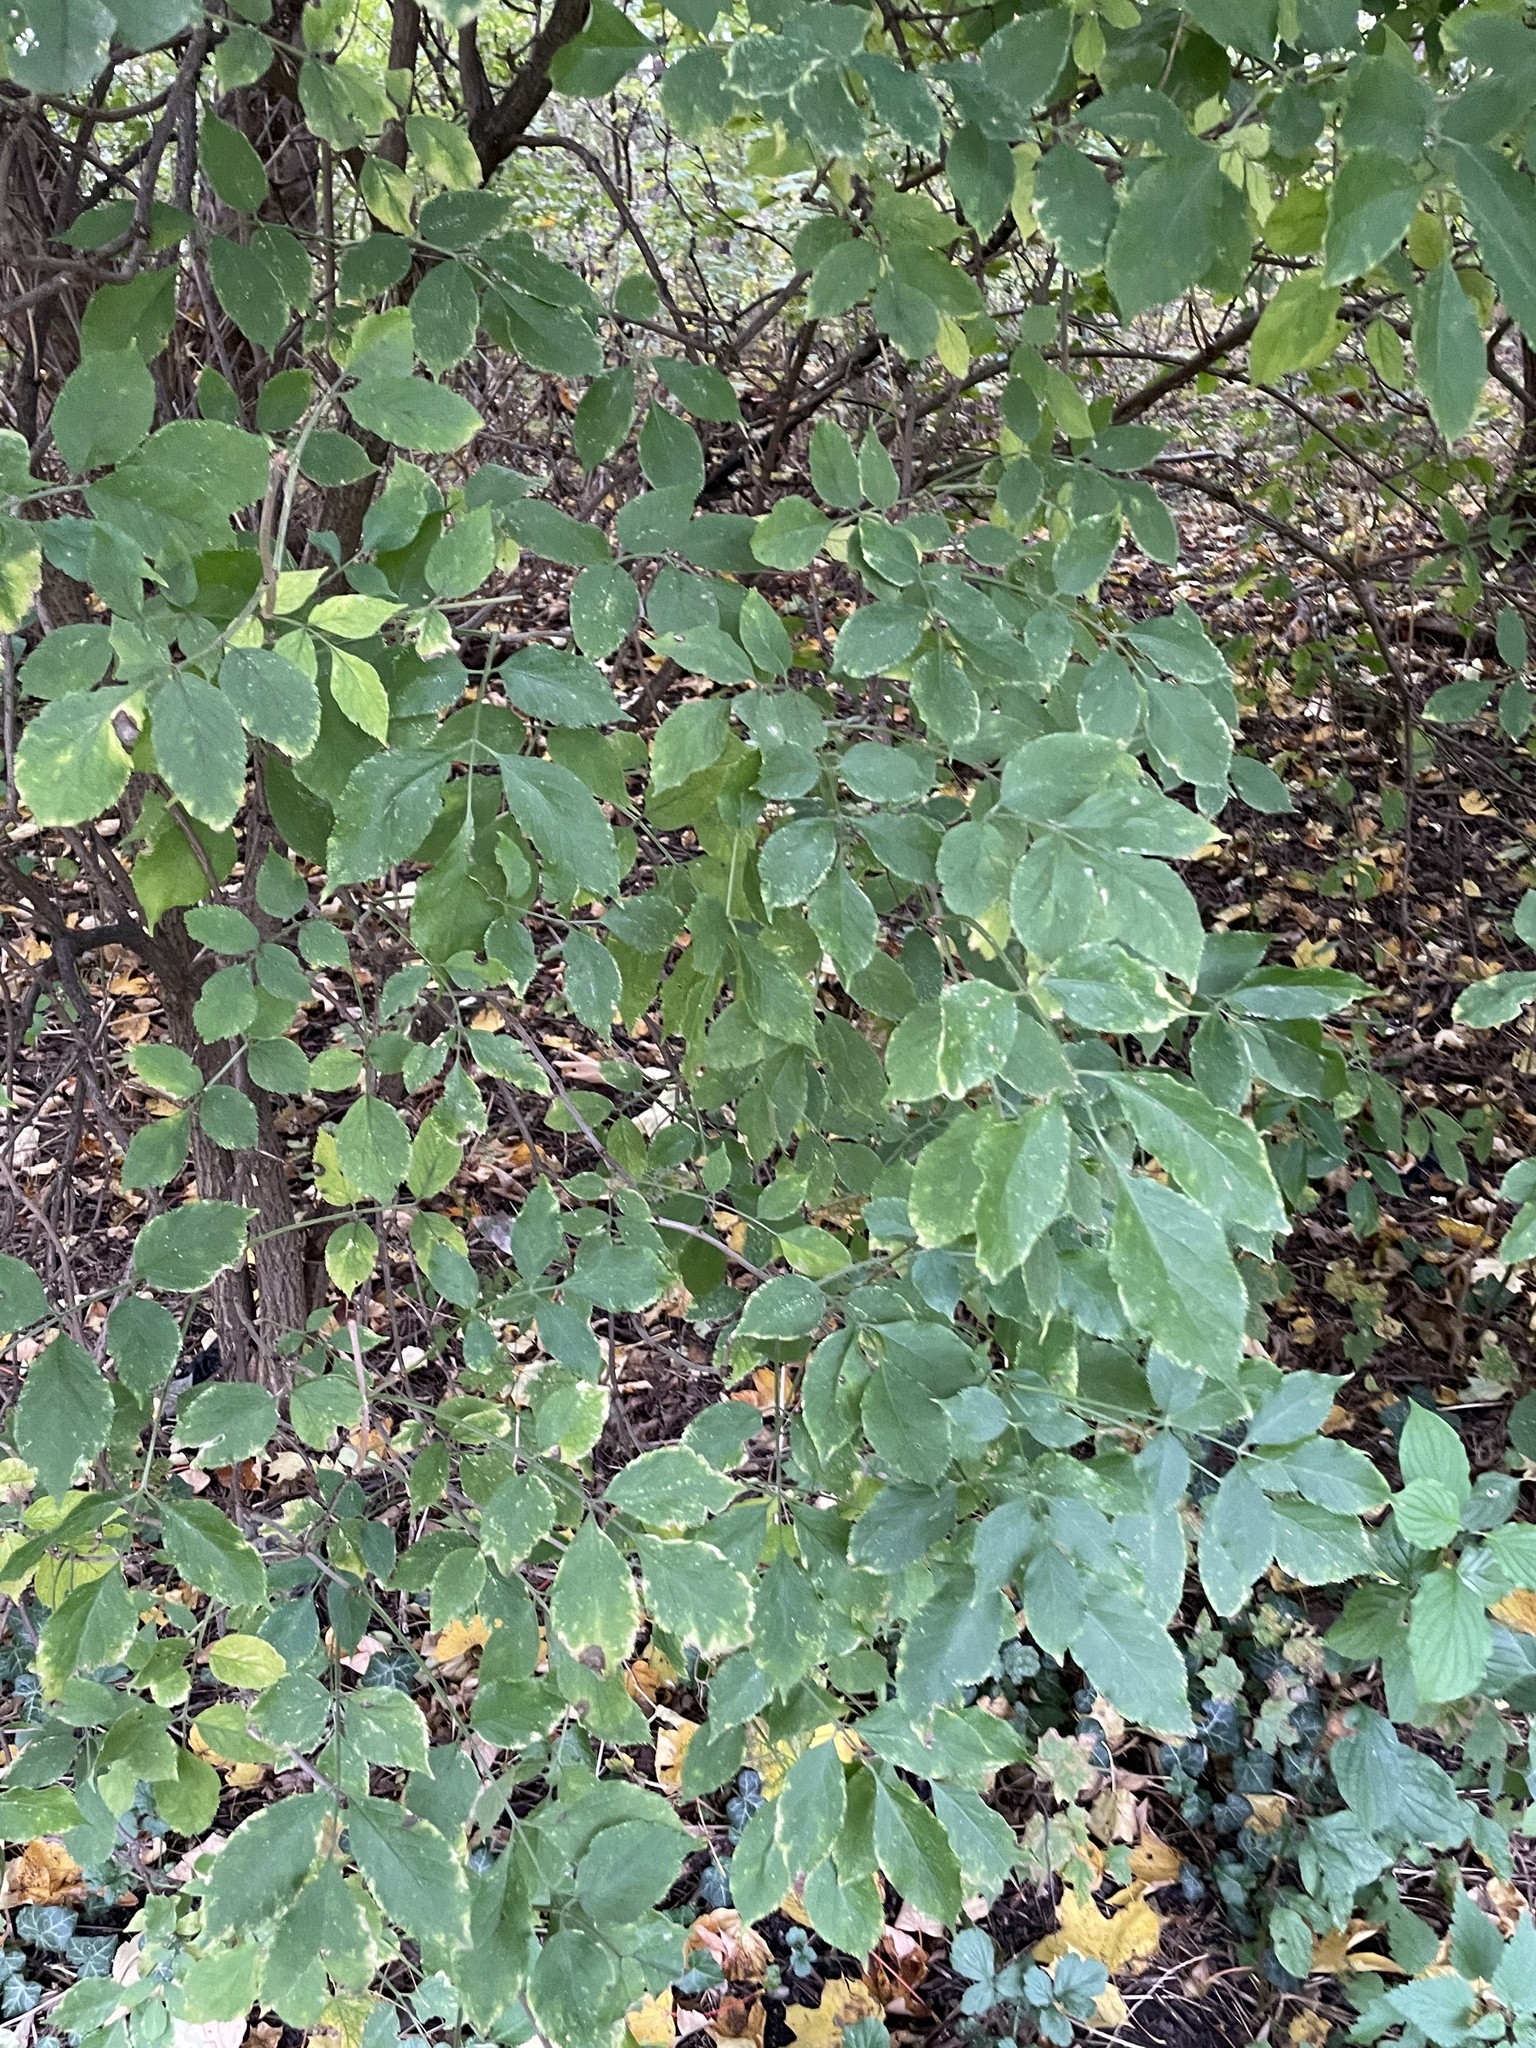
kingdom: Plantae
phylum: Tracheophyta
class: Magnoliopsida
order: Dipsacales
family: Viburnaceae
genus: Sambucus
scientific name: Sambucus nigra
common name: Elder
